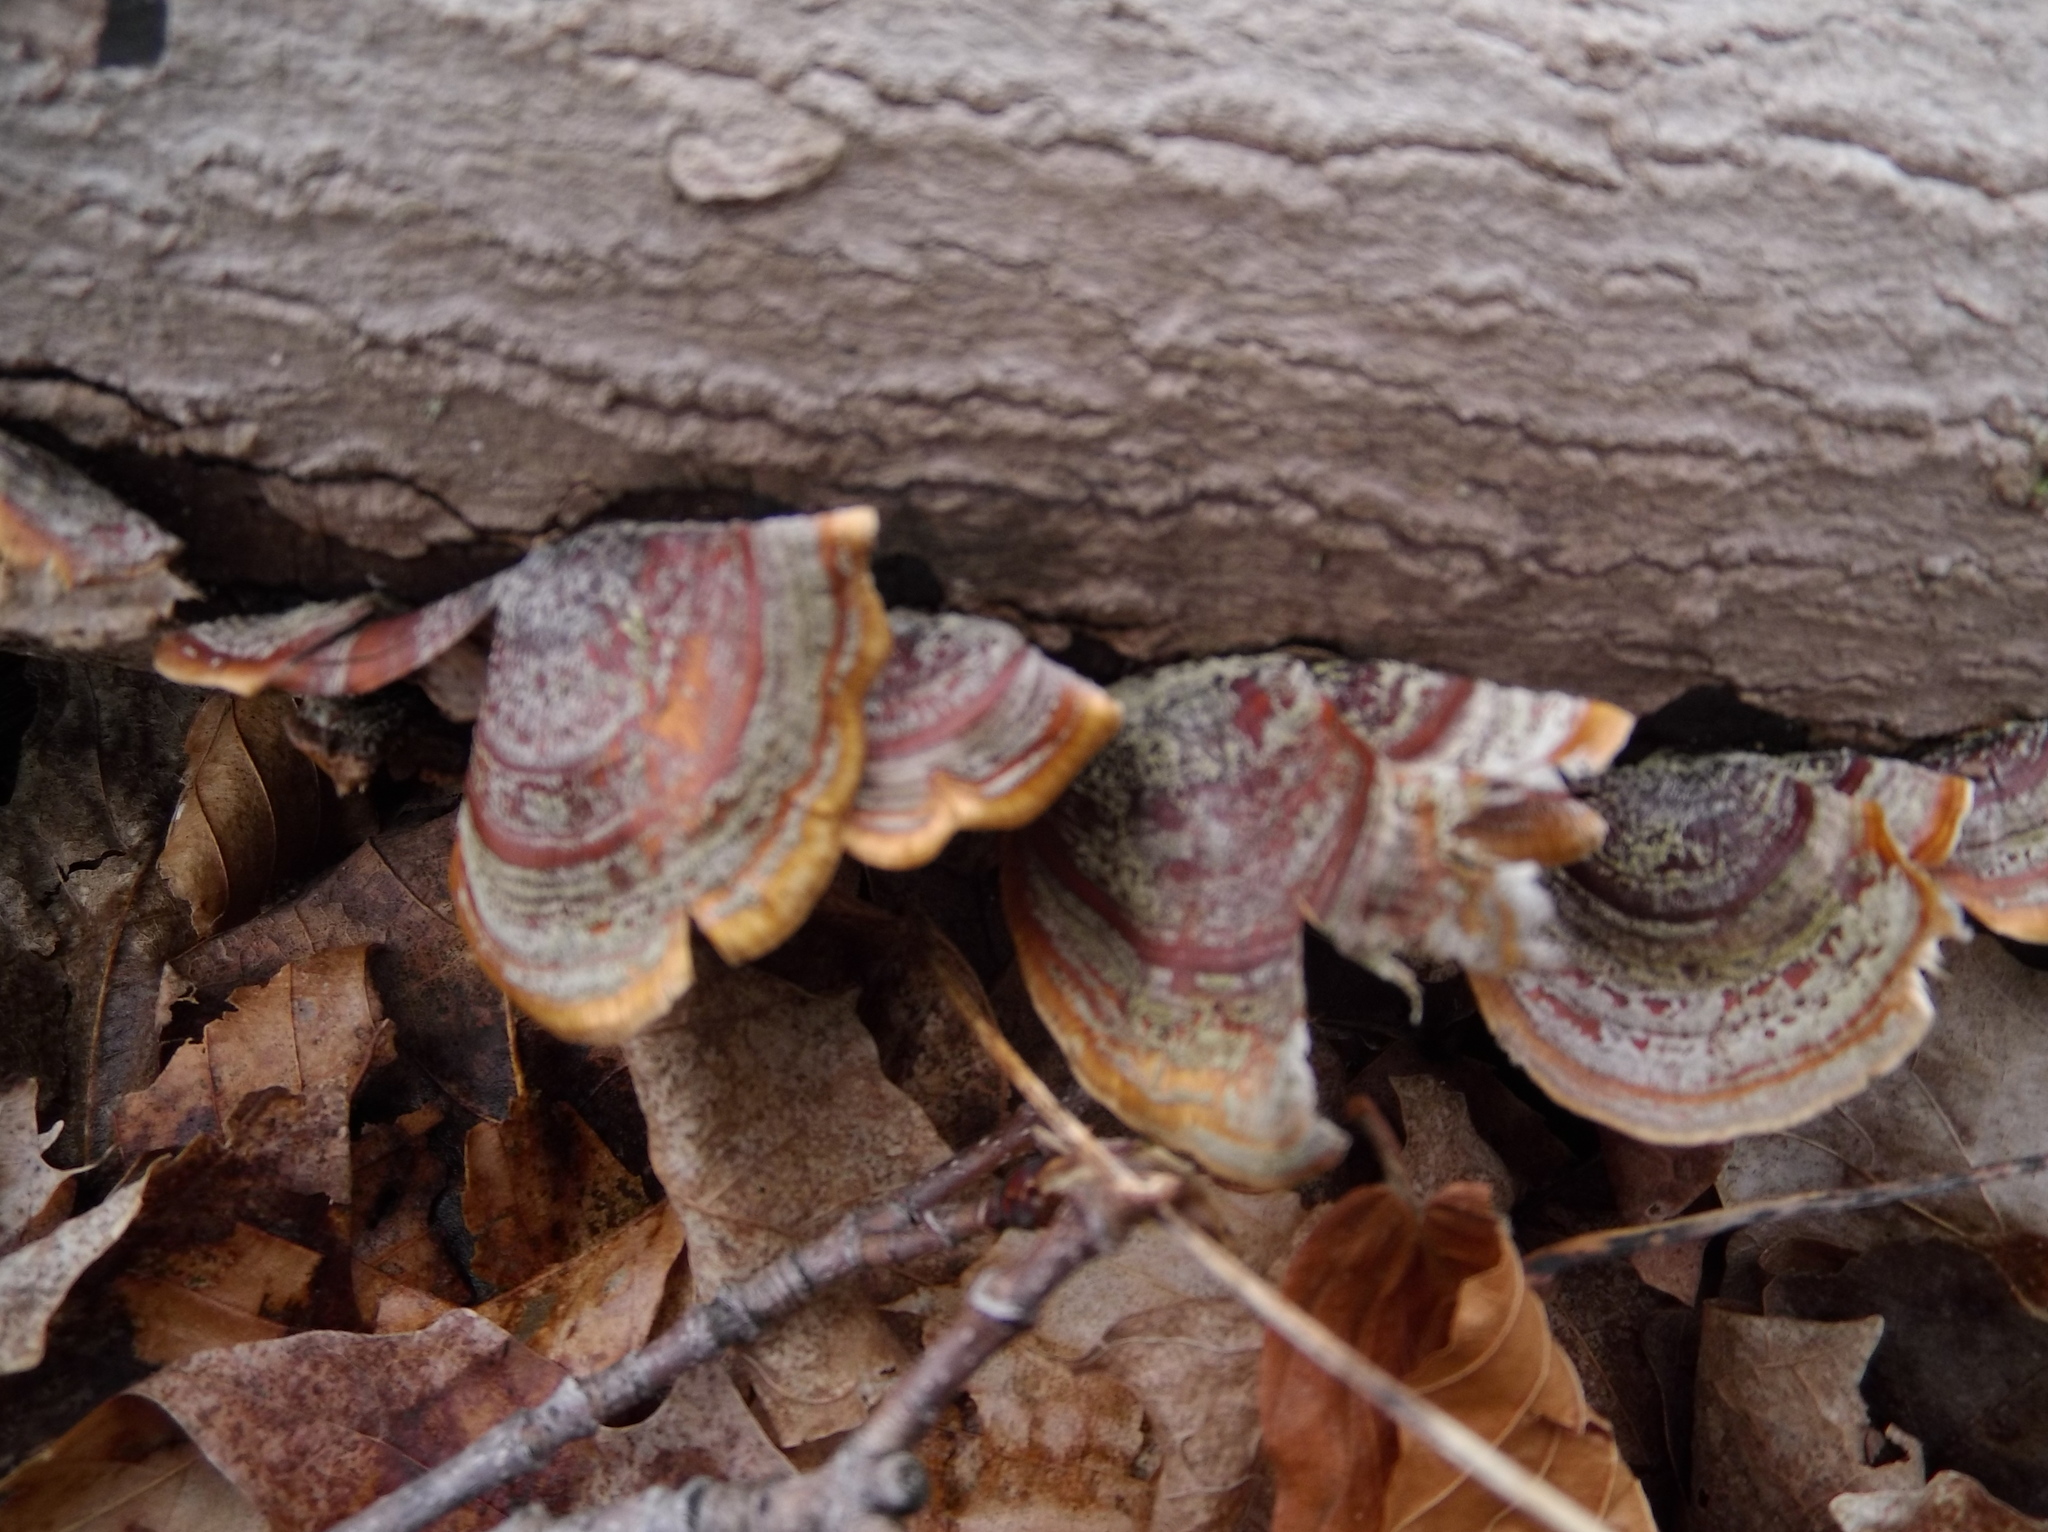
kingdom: Fungi
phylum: Basidiomycota
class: Agaricomycetes
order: Russulales
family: Stereaceae
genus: Stereum
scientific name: Stereum ostrea
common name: False turkeytail
